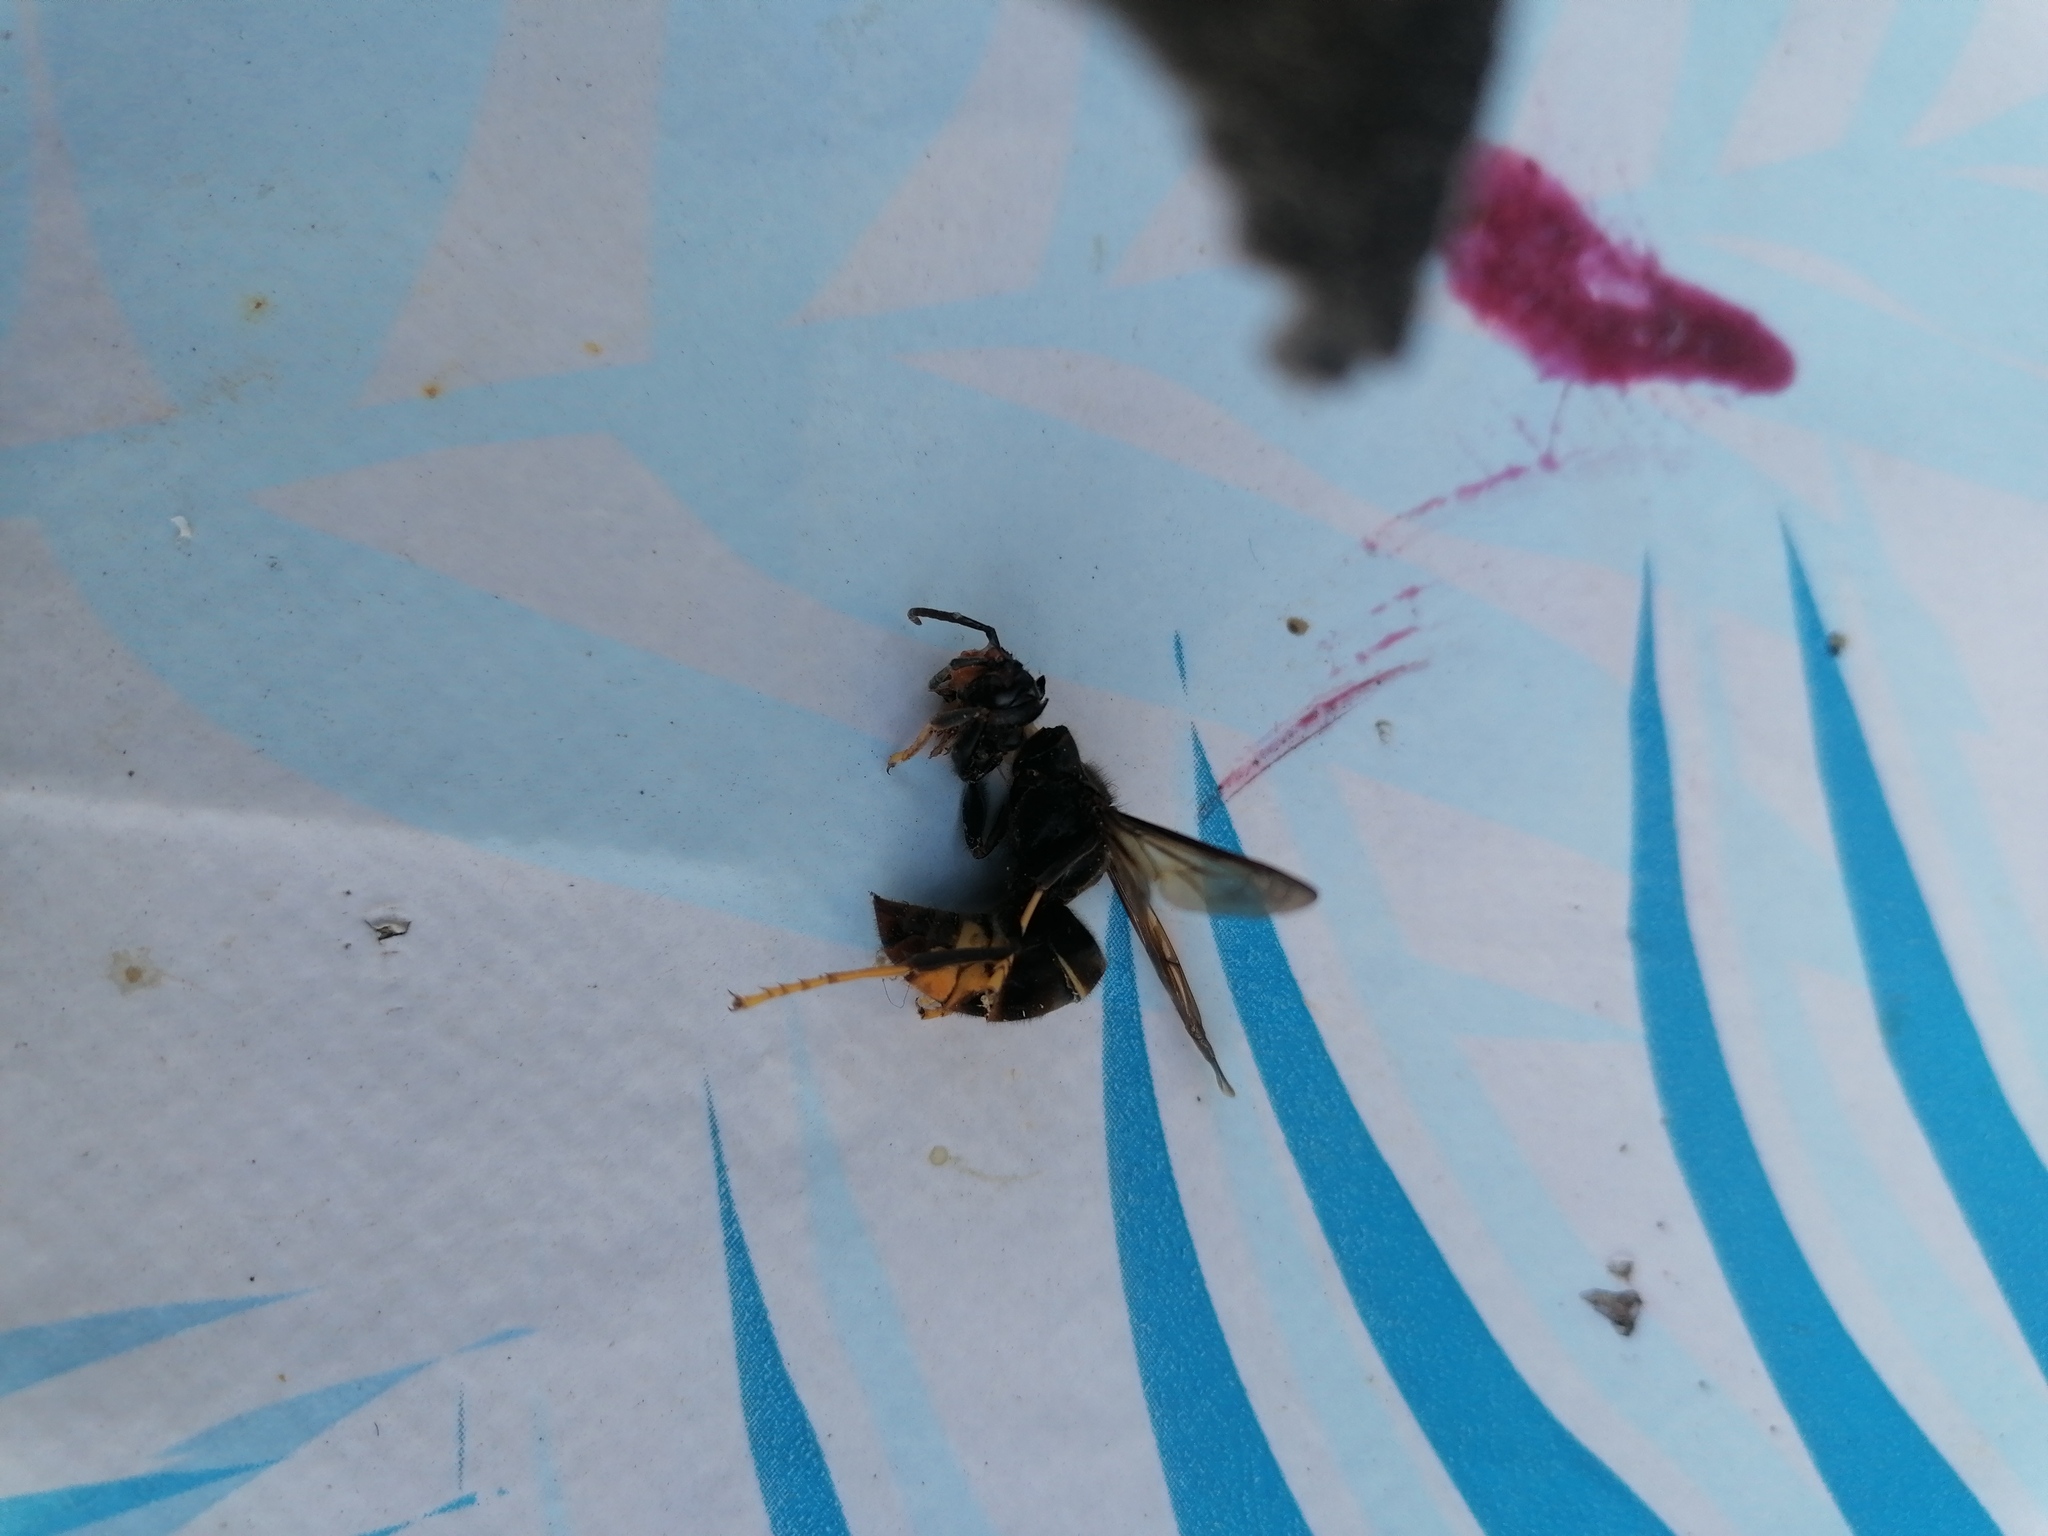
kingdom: Animalia
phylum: Arthropoda
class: Insecta
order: Hymenoptera
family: Vespidae
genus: Vespa
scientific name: Vespa velutina
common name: Asian hornet
